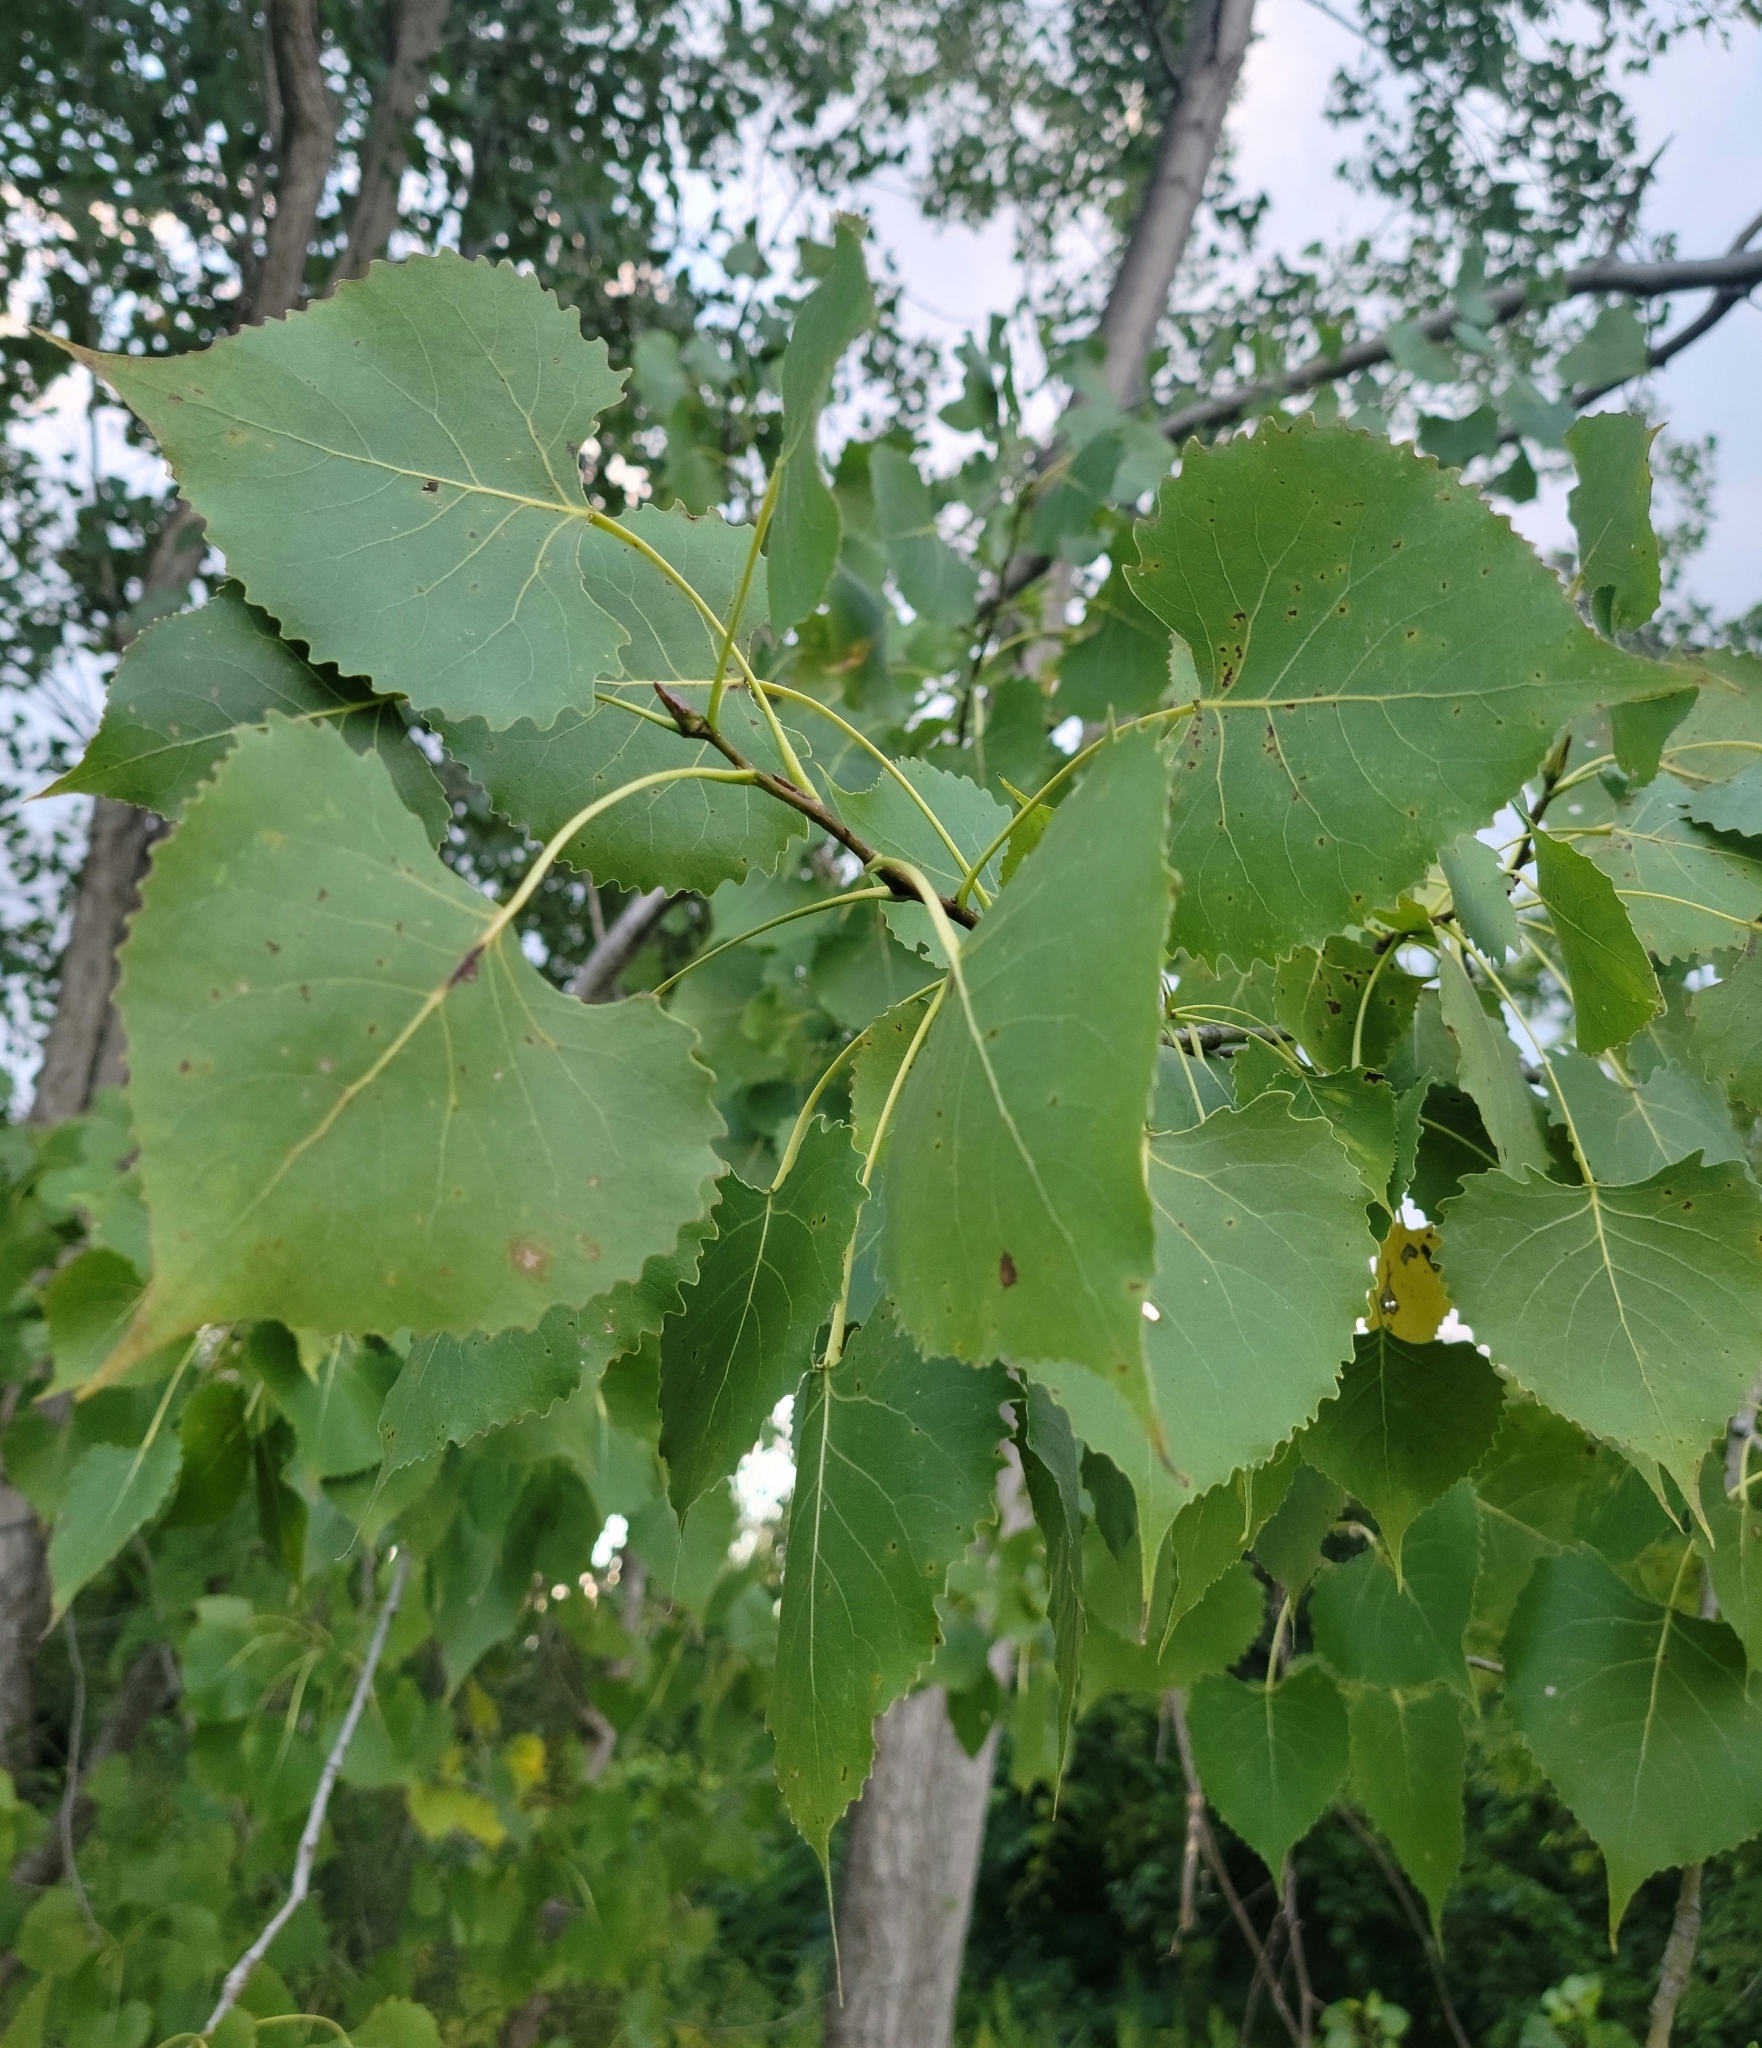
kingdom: Plantae
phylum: Tracheophyta
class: Magnoliopsida
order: Malpighiales
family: Salicaceae
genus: Populus
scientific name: Populus deltoides
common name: Eastern cottonwood
